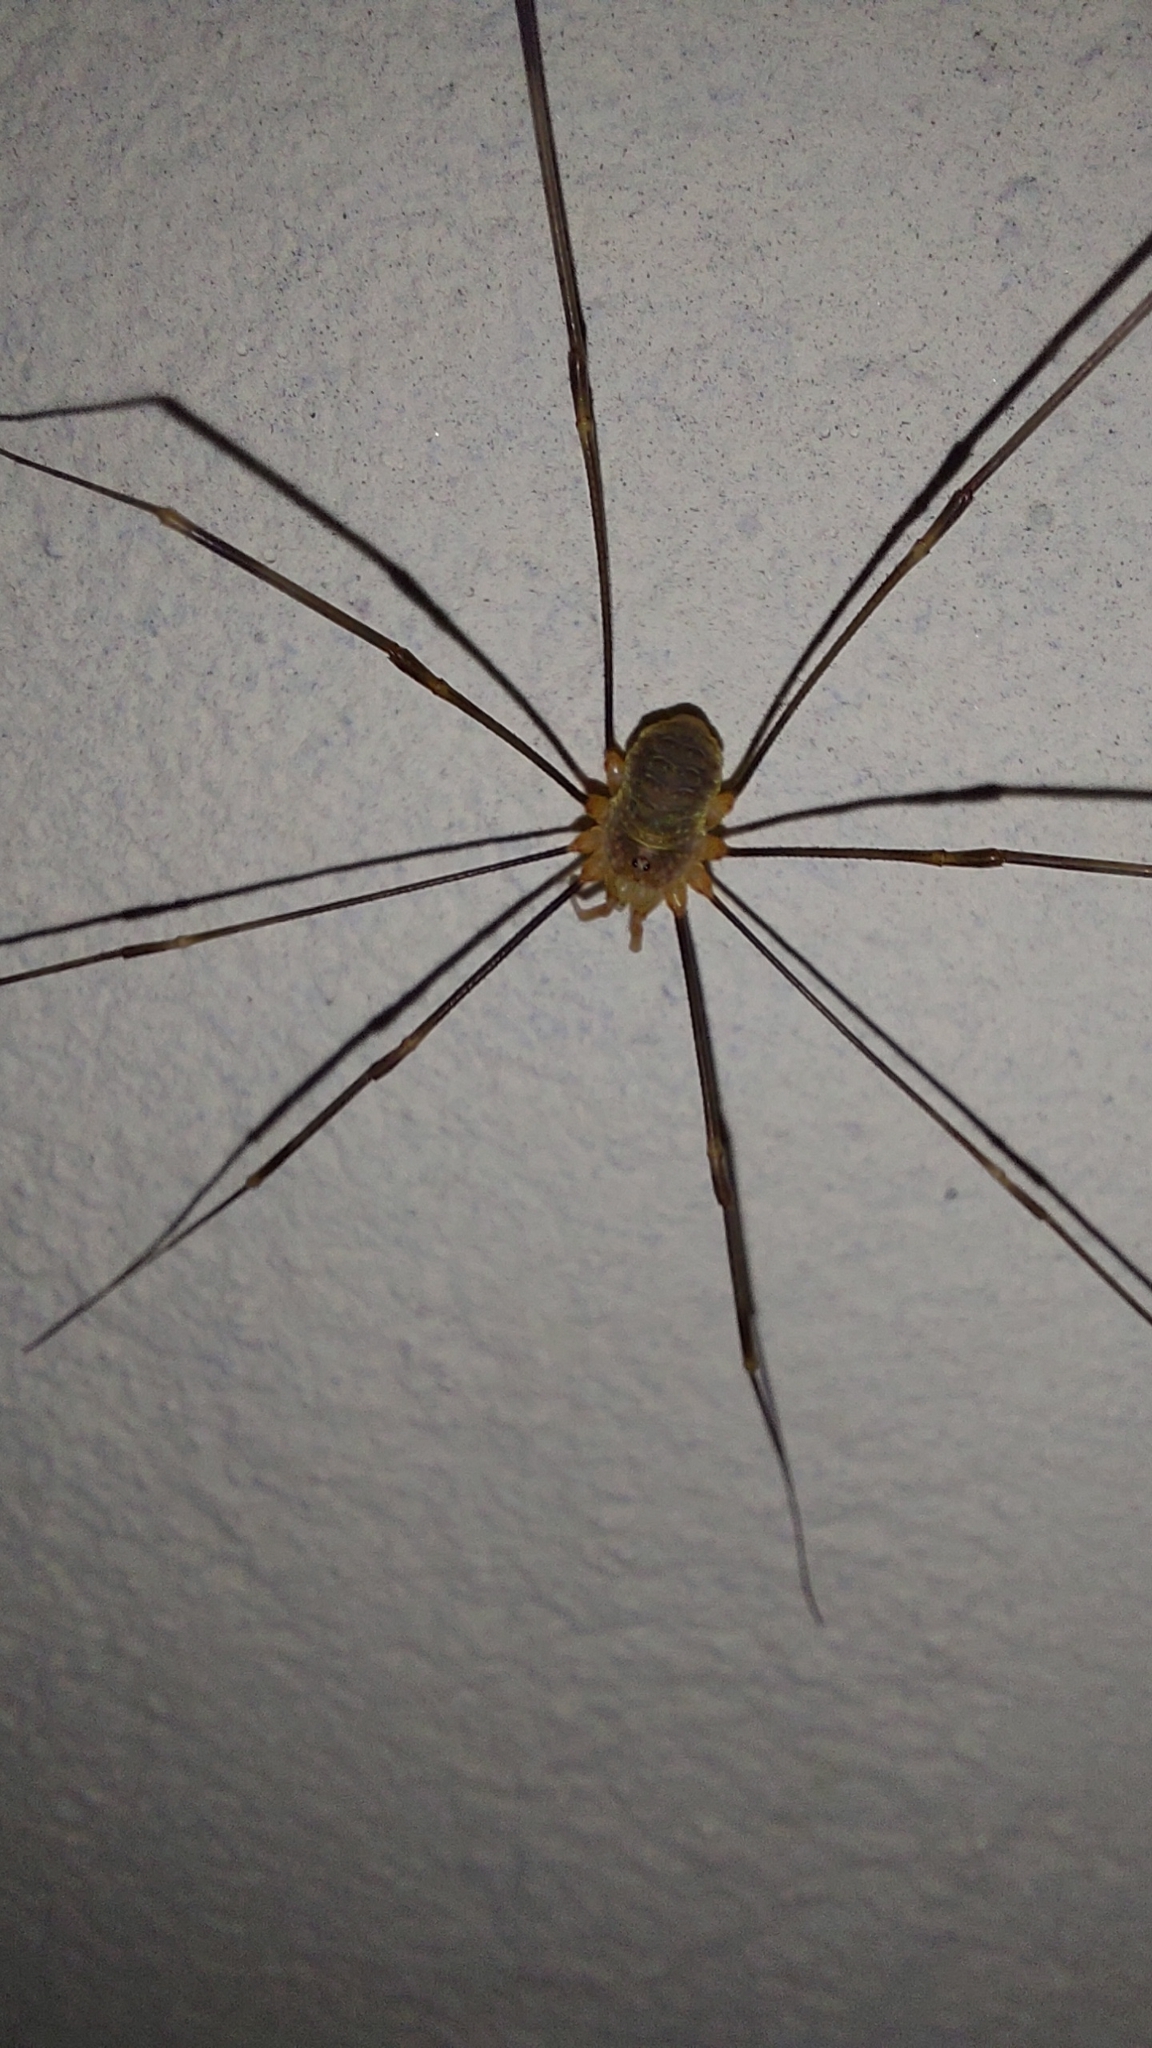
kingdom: Animalia
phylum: Arthropoda
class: Arachnida
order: Opiliones
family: Phalangiidae
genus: Opilio
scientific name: Opilio canestrinii
